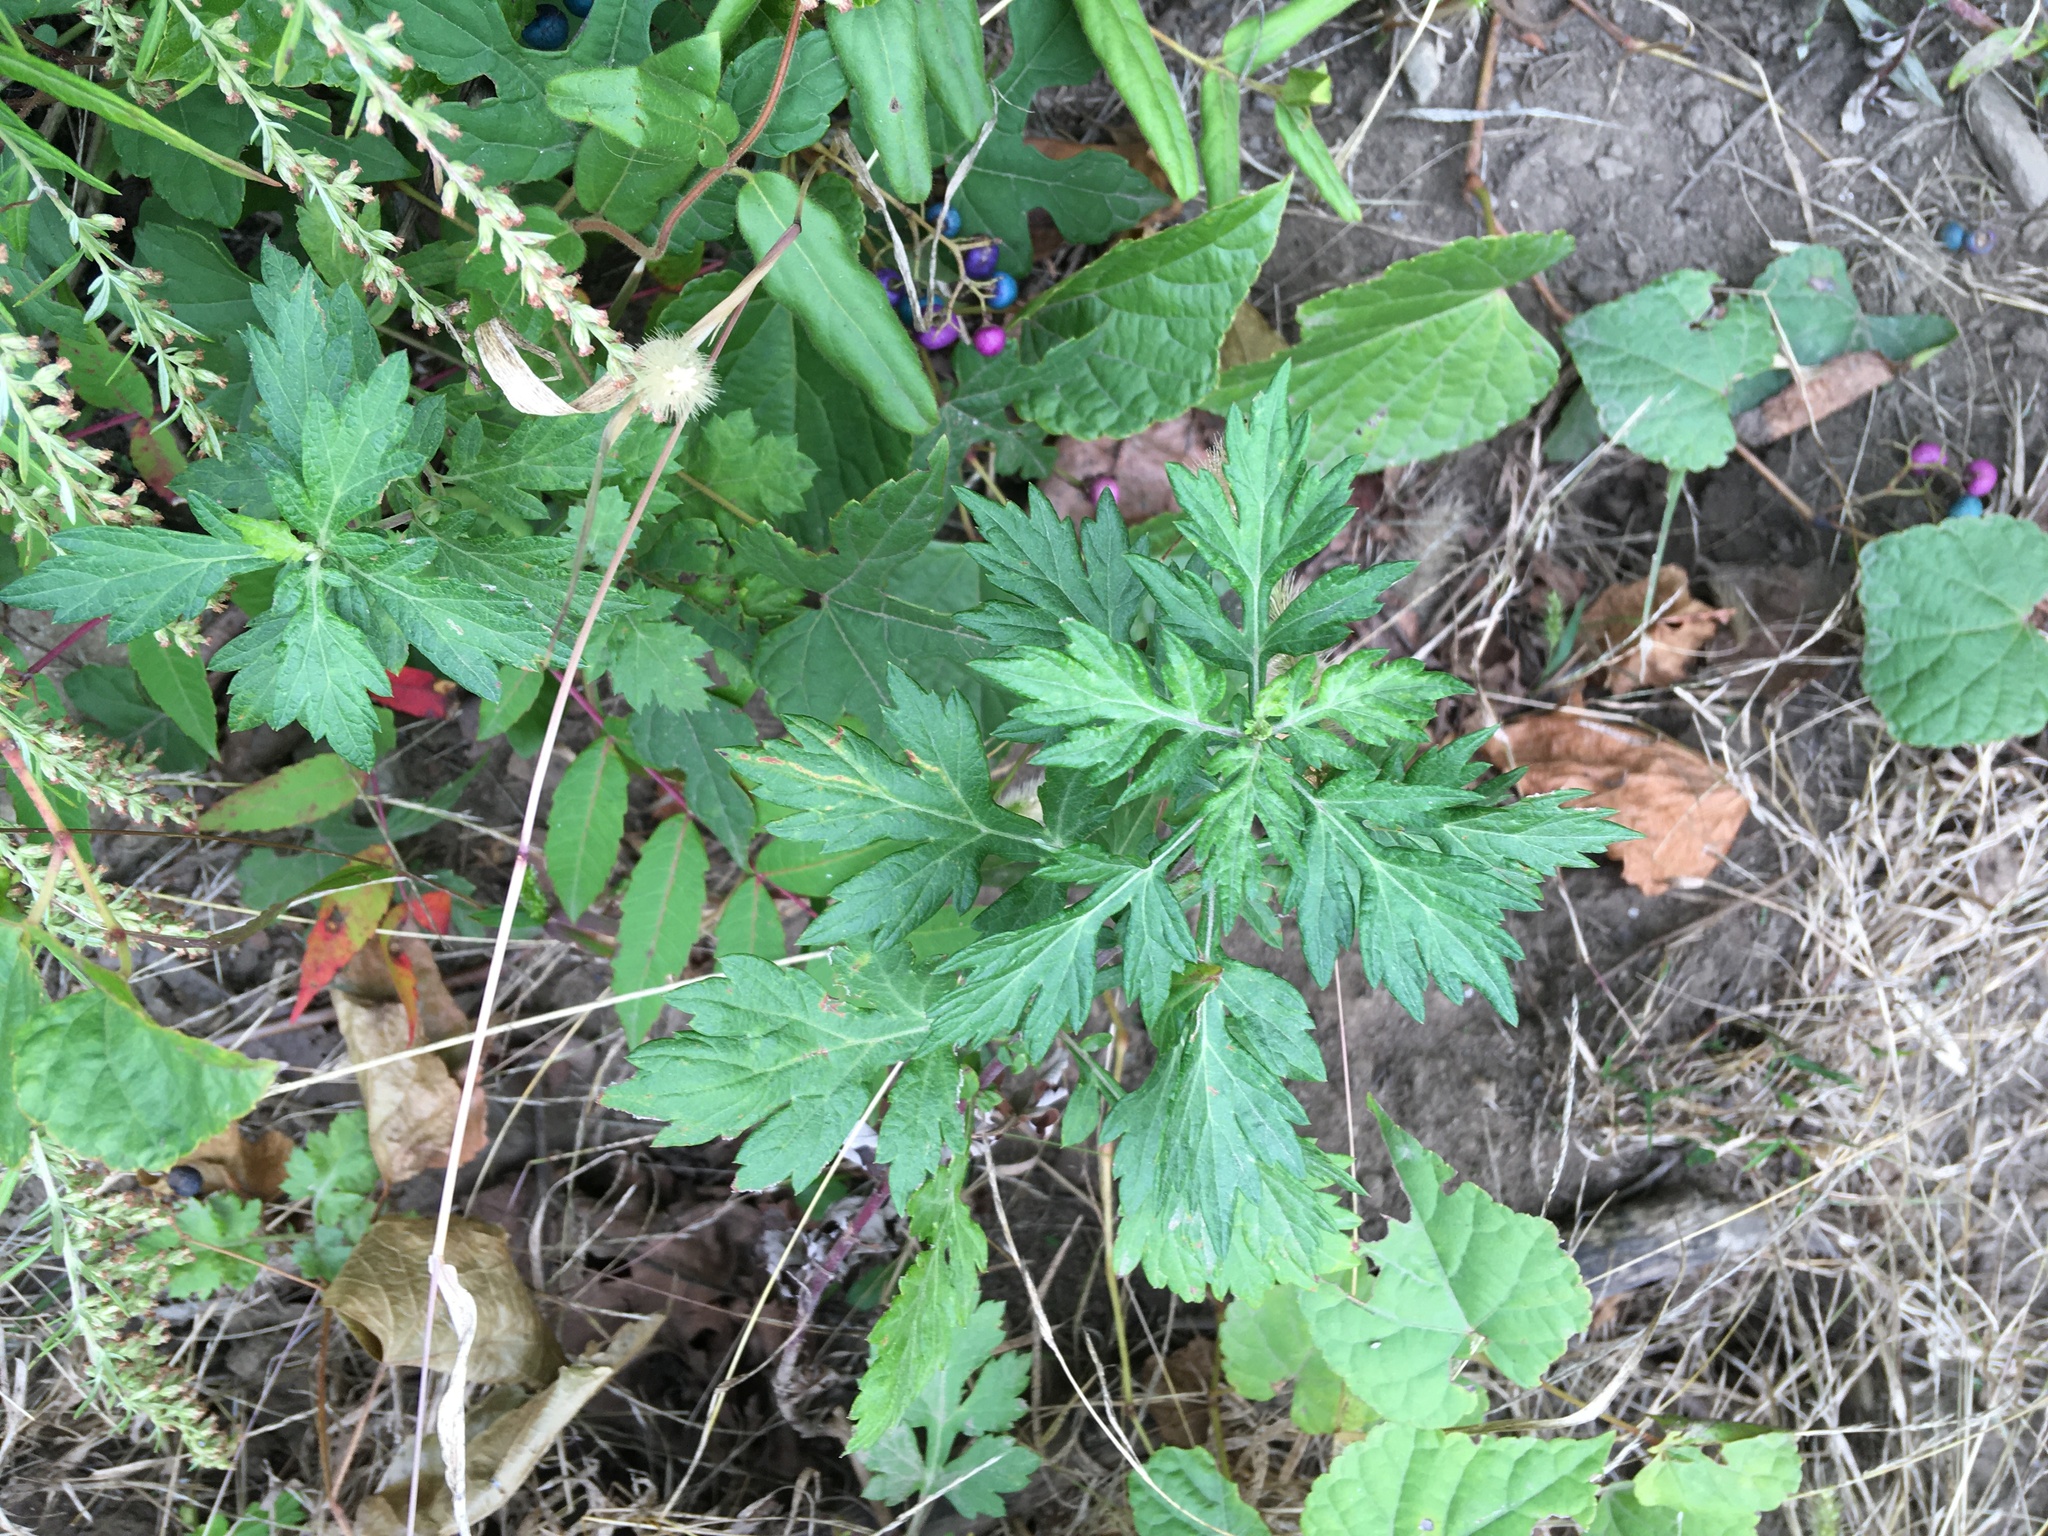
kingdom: Plantae
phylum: Tracheophyta
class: Magnoliopsida
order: Asterales
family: Asteraceae
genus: Artemisia
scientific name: Artemisia vulgaris
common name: Mugwort
